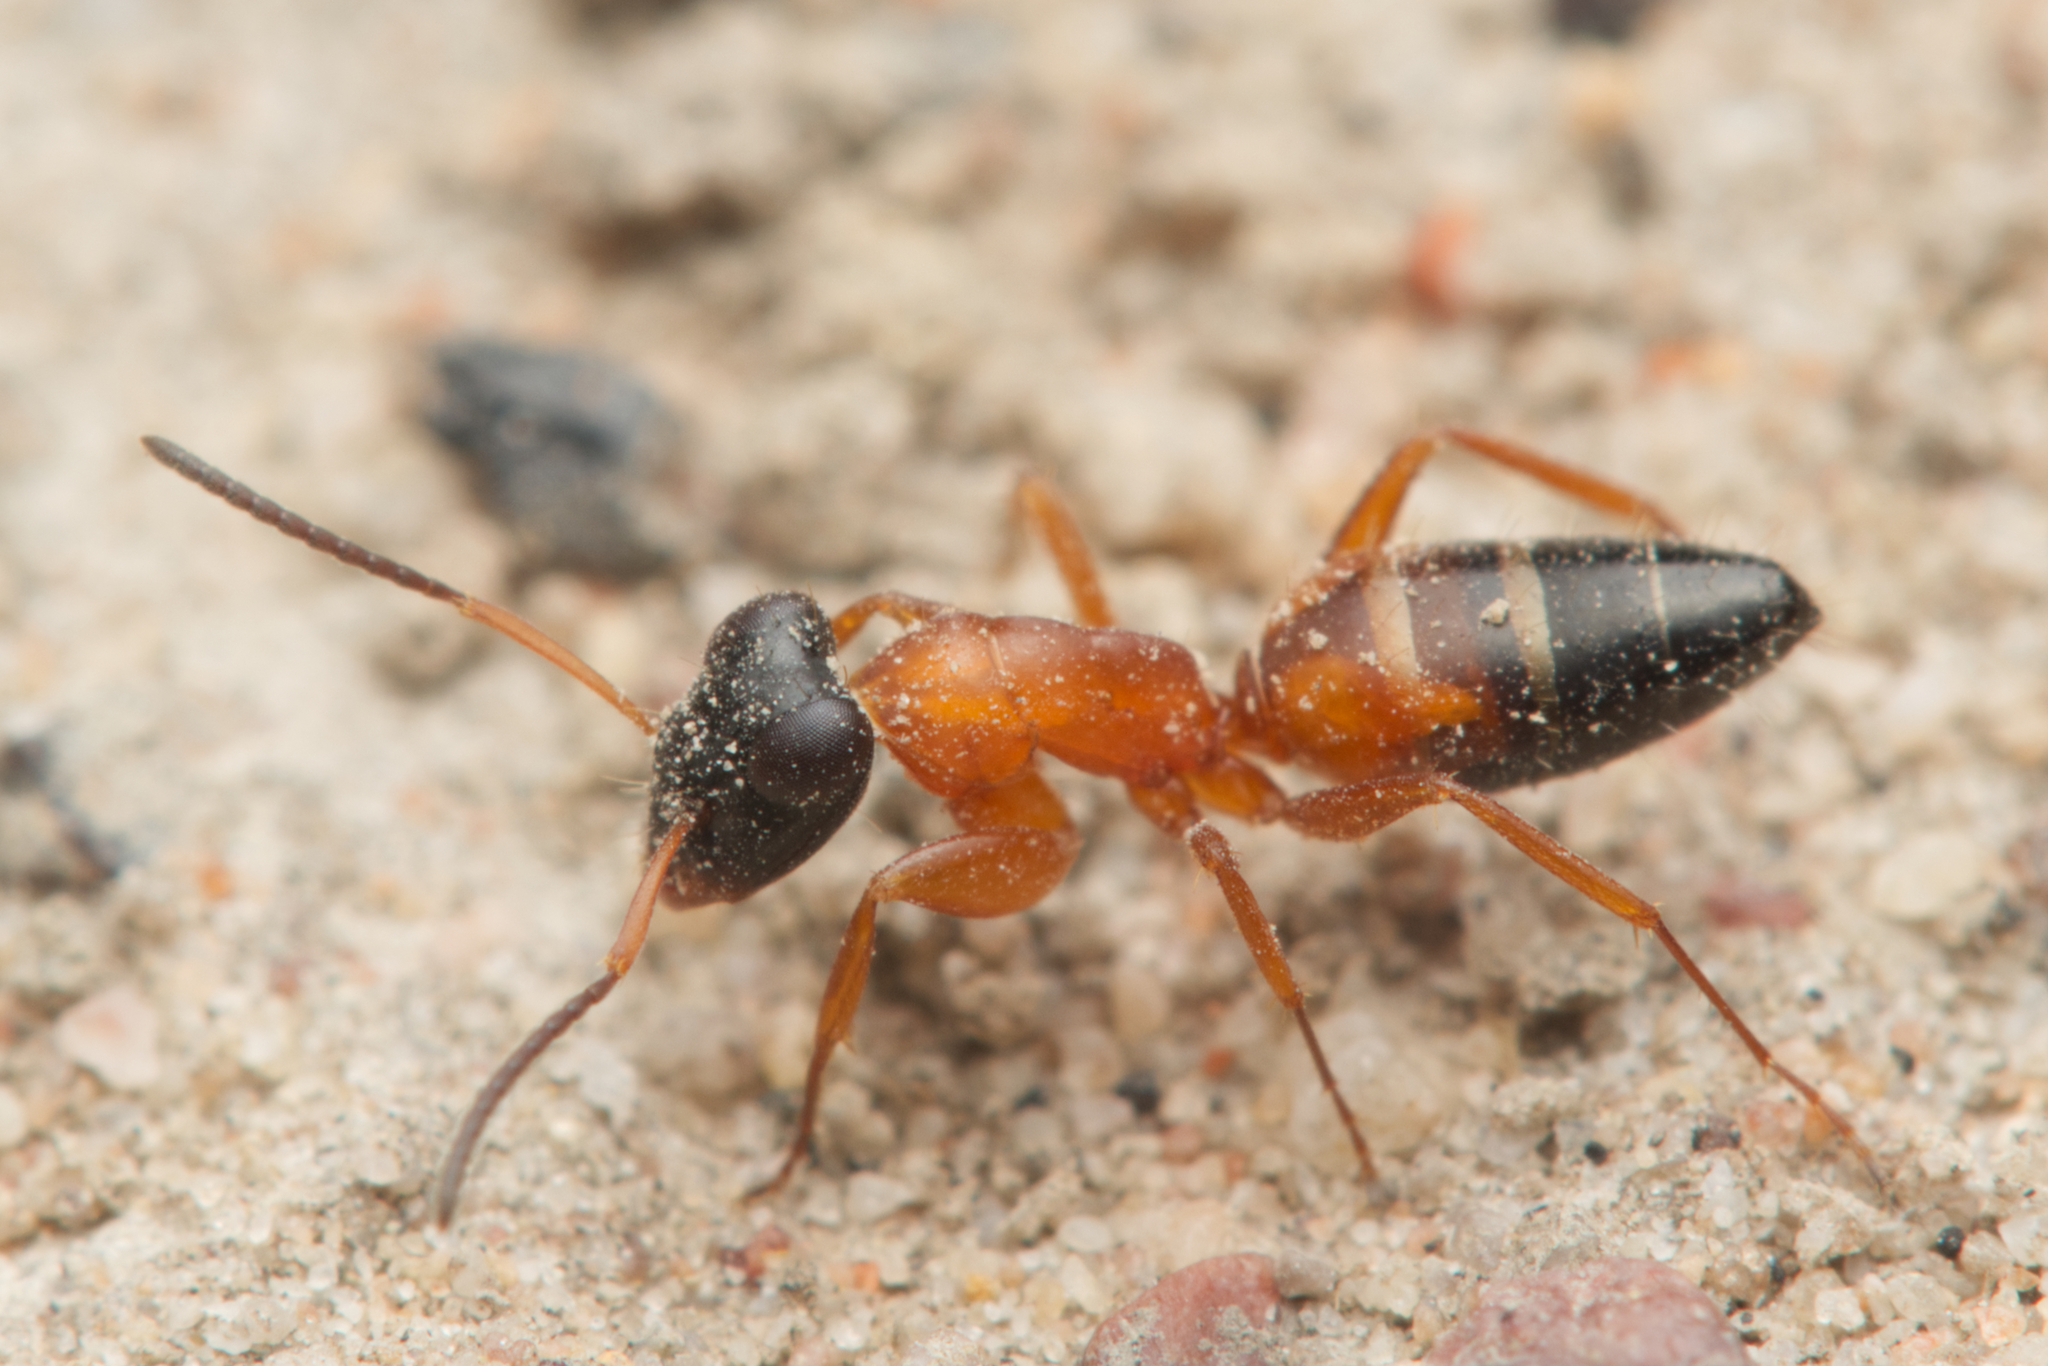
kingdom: Animalia
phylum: Arthropoda
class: Insecta
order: Hymenoptera
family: Formicidae
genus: Opisthopsis
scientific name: Opisthopsis rufithorax
